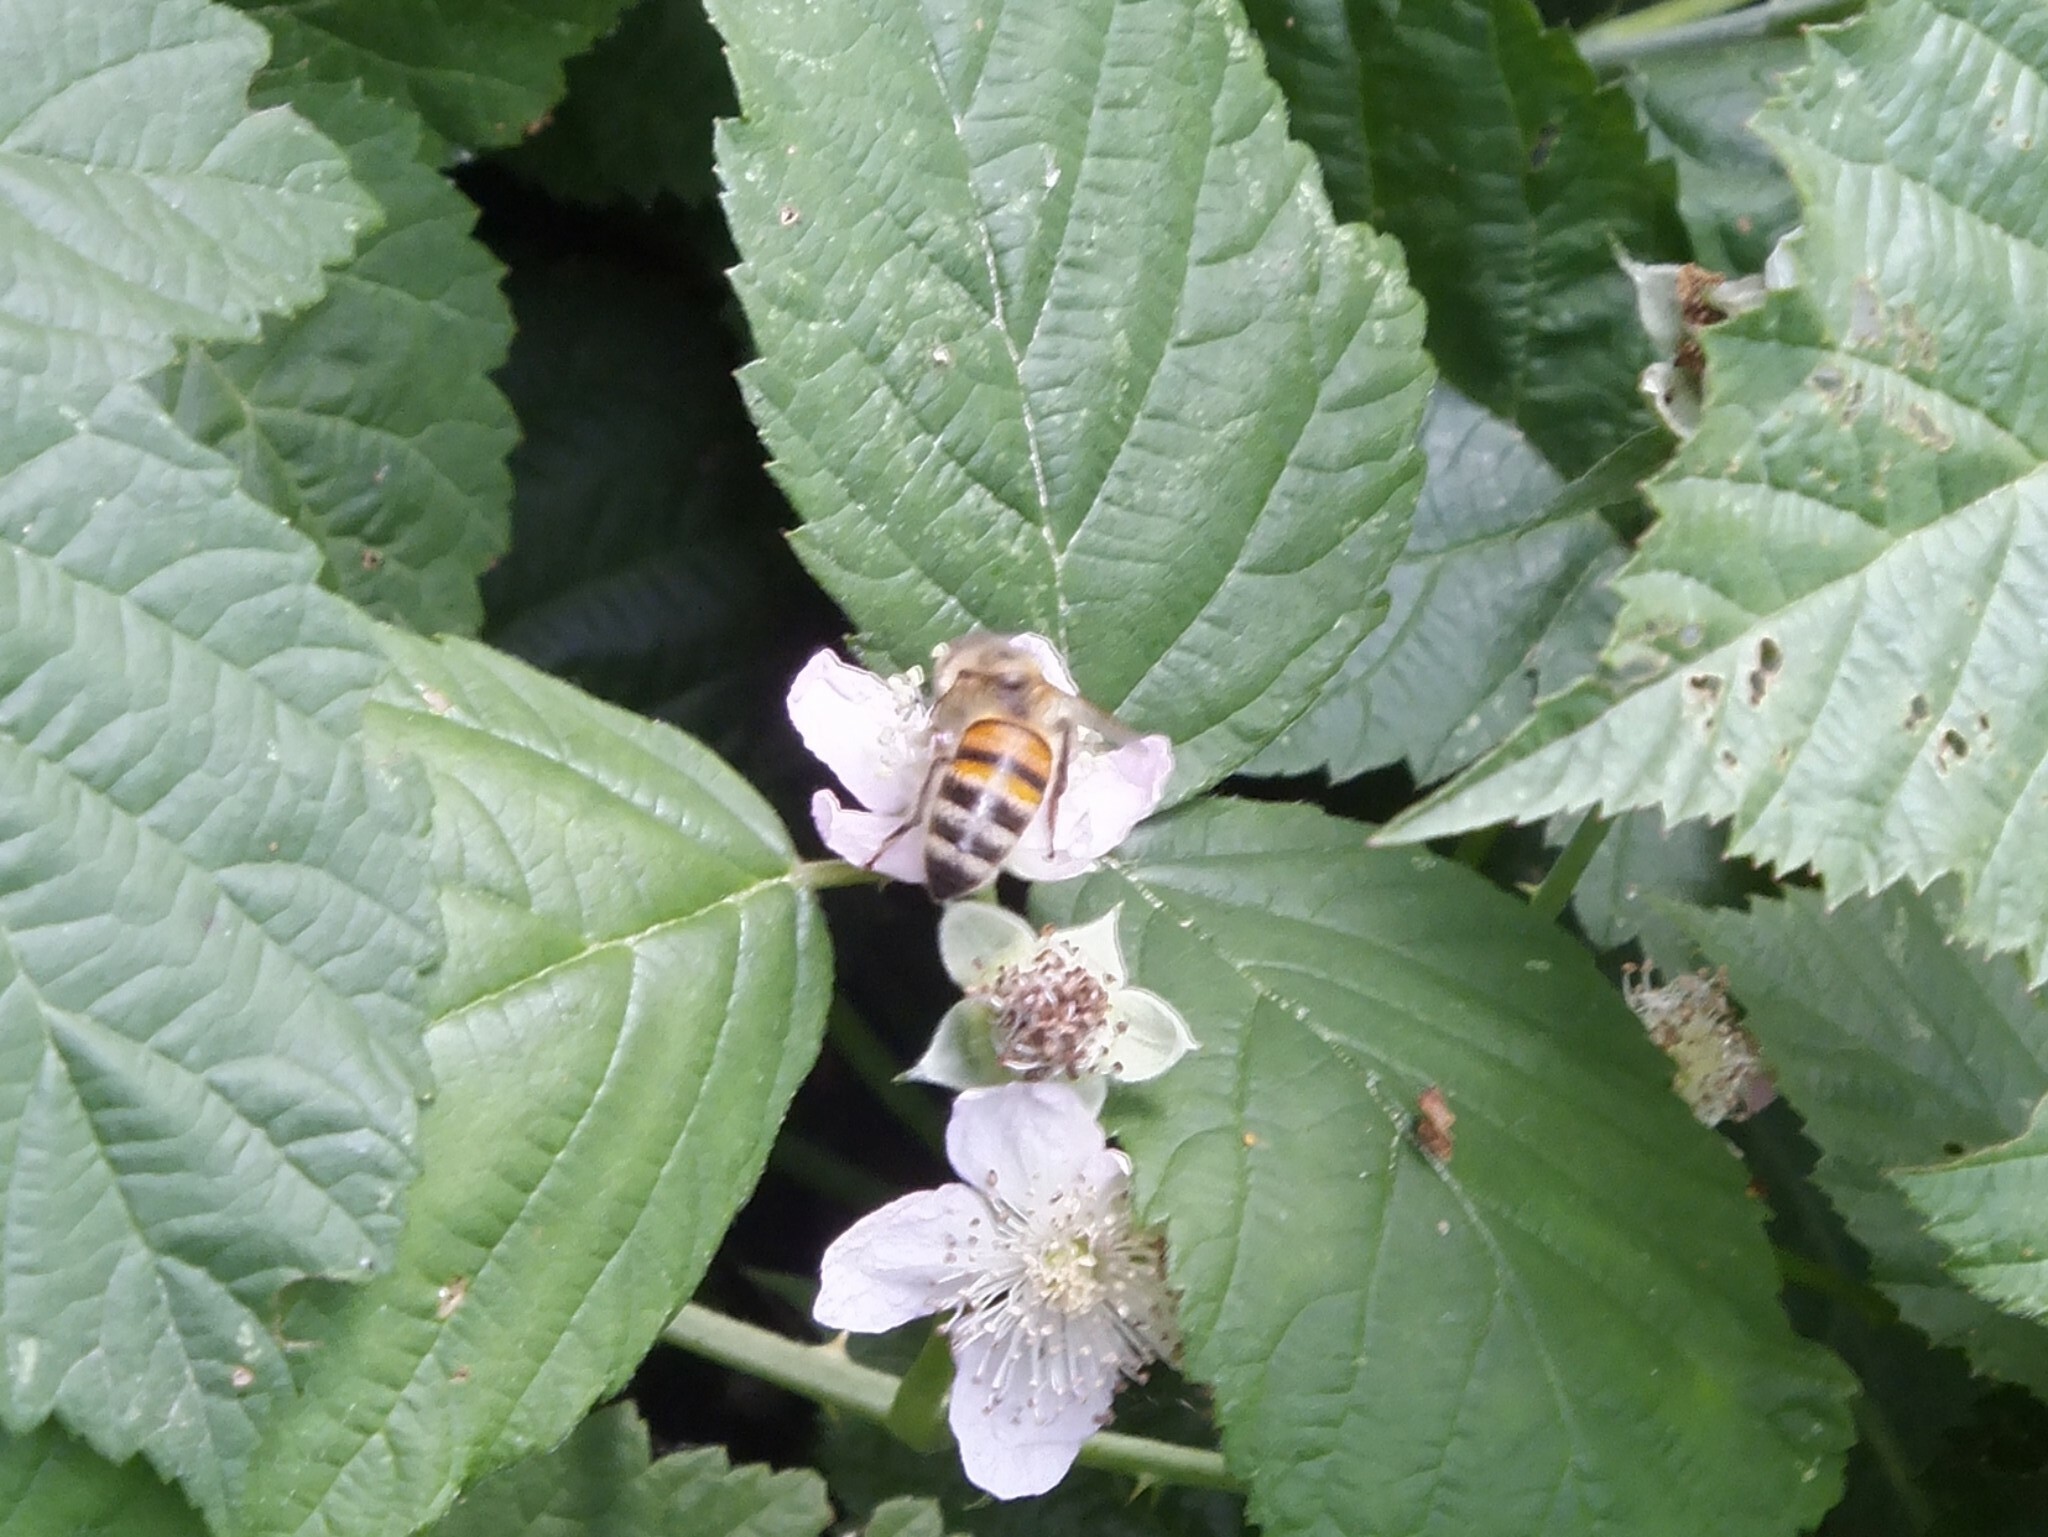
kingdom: Animalia
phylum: Arthropoda
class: Insecta
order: Hymenoptera
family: Apidae
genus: Apis
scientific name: Apis mellifera
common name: Honey bee
